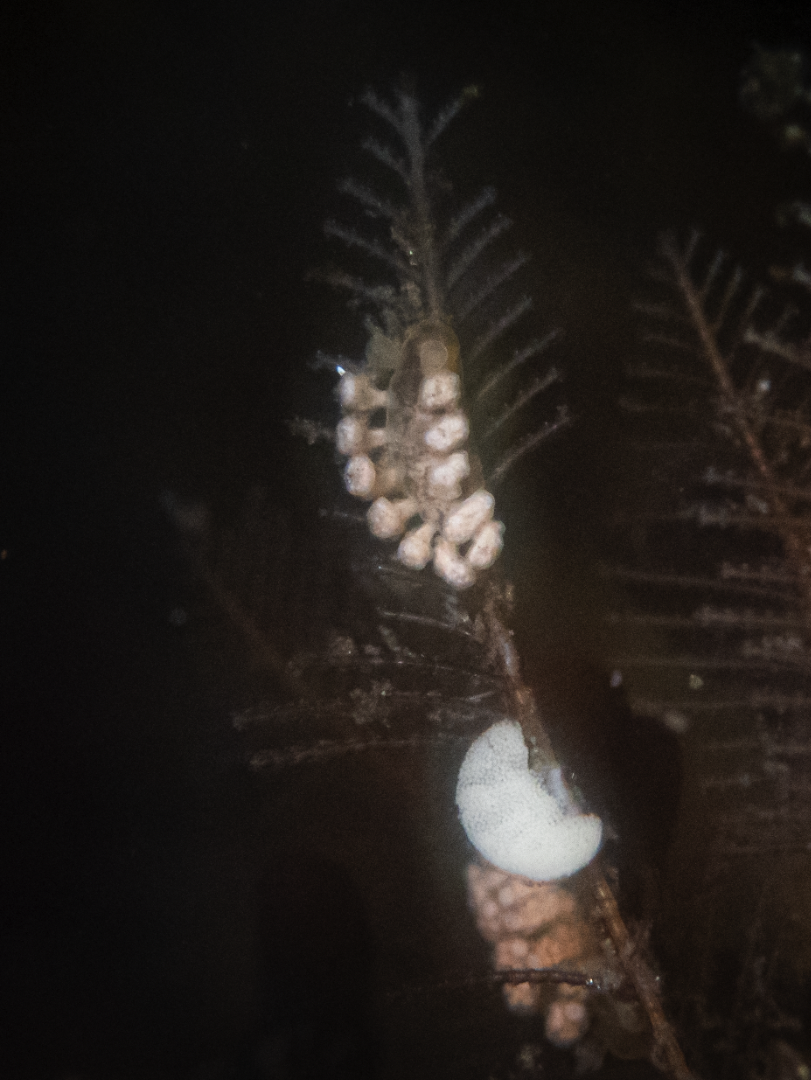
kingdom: Animalia
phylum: Mollusca
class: Gastropoda
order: Nudibranchia
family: Dotidae
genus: Doto
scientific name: Doto kya
